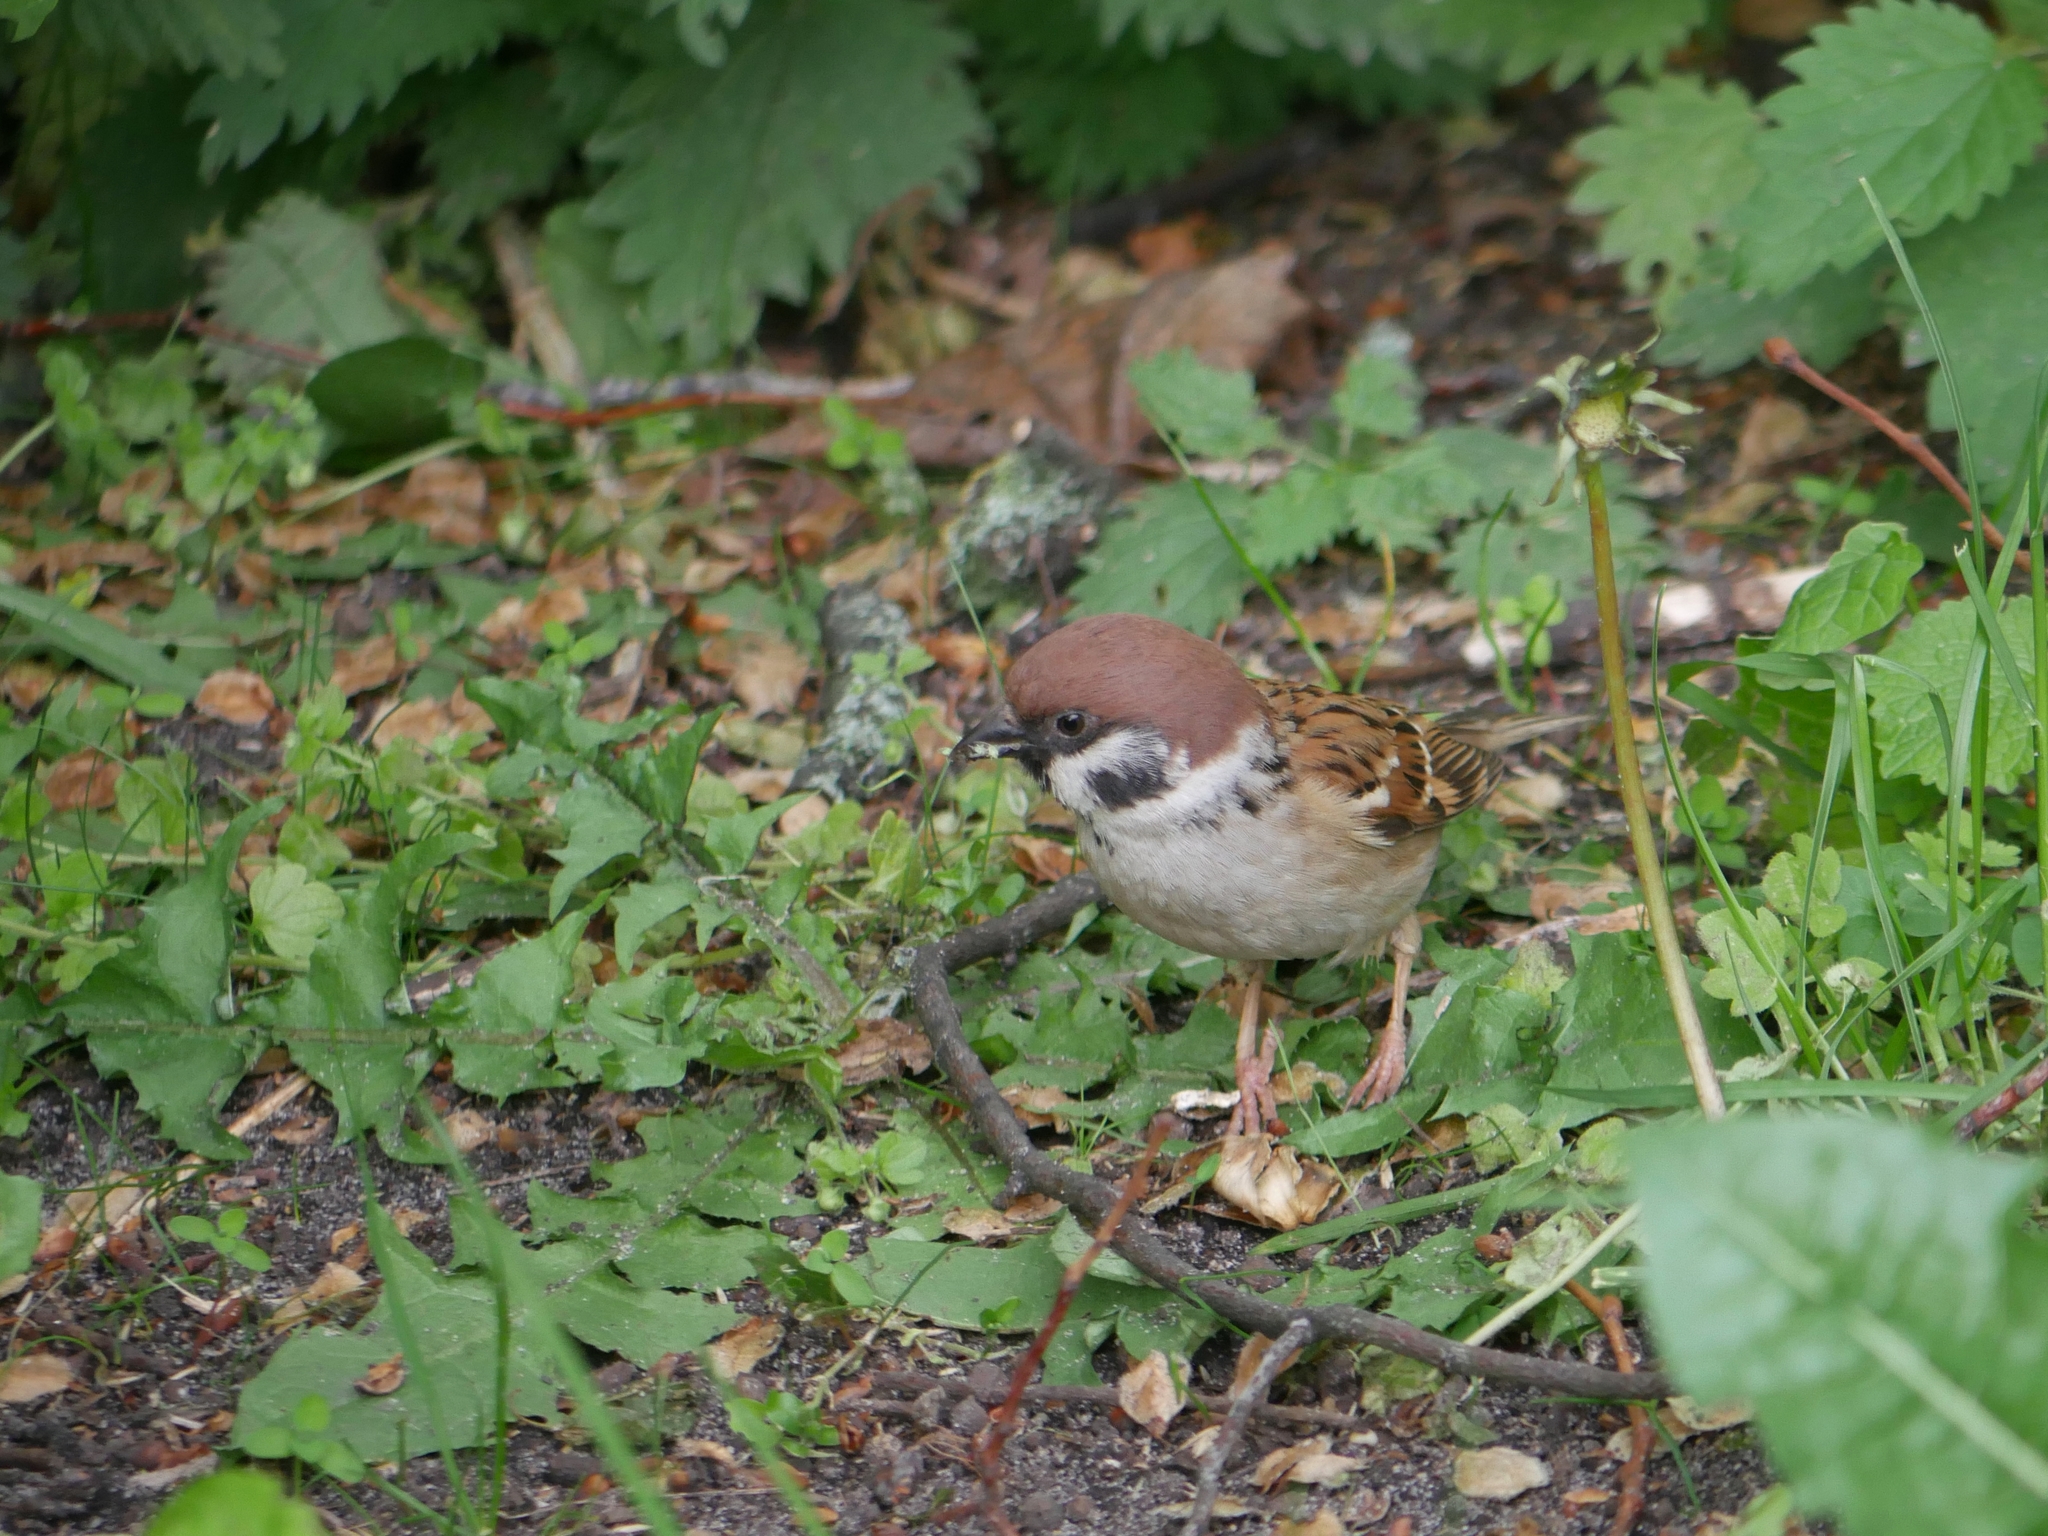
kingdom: Animalia
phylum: Chordata
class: Aves
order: Passeriformes
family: Passeridae
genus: Passer
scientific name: Passer montanus
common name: Eurasian tree sparrow
